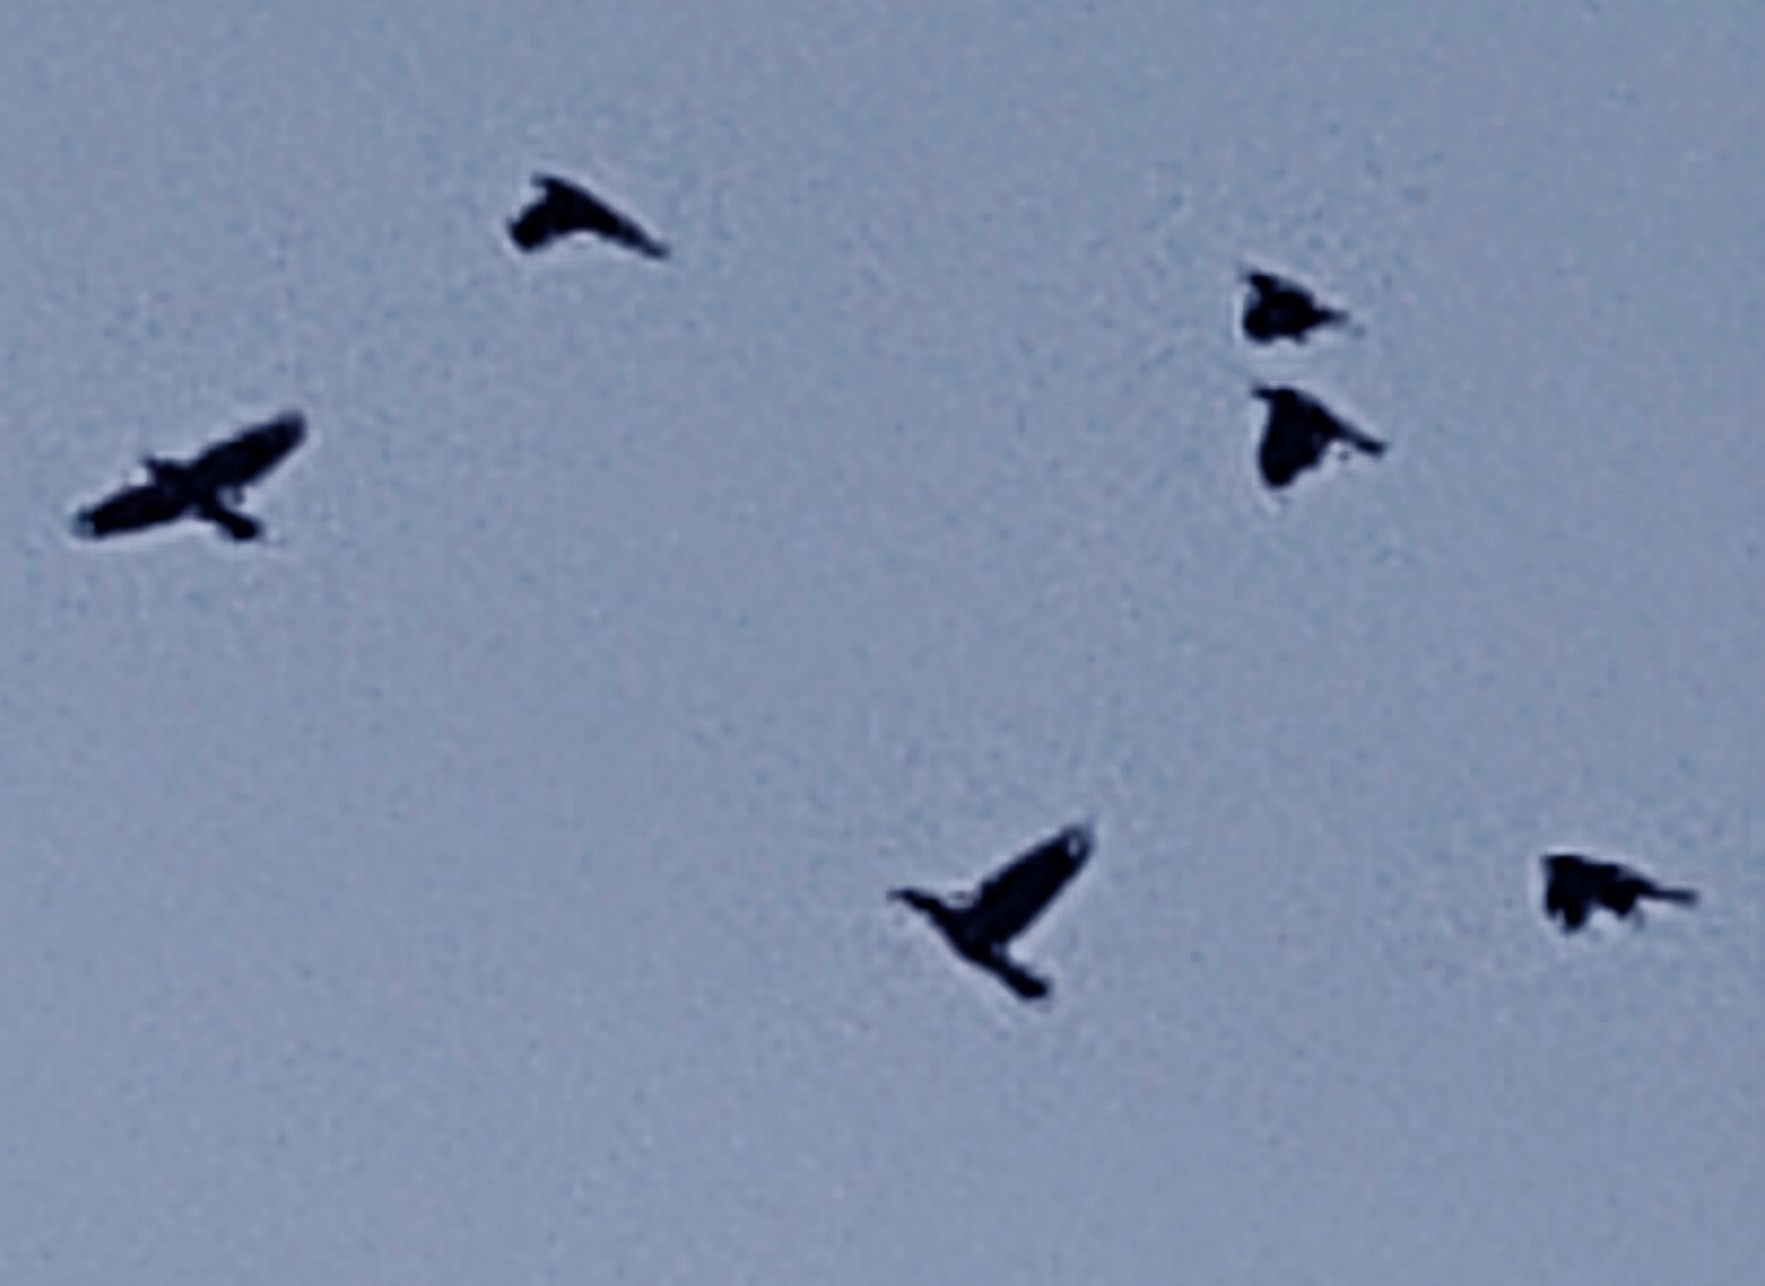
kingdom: Animalia
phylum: Chordata
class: Aves
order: Passeriformes
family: Corvidae
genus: Coloeus
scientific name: Coloeus monedula
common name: Western jackdaw
